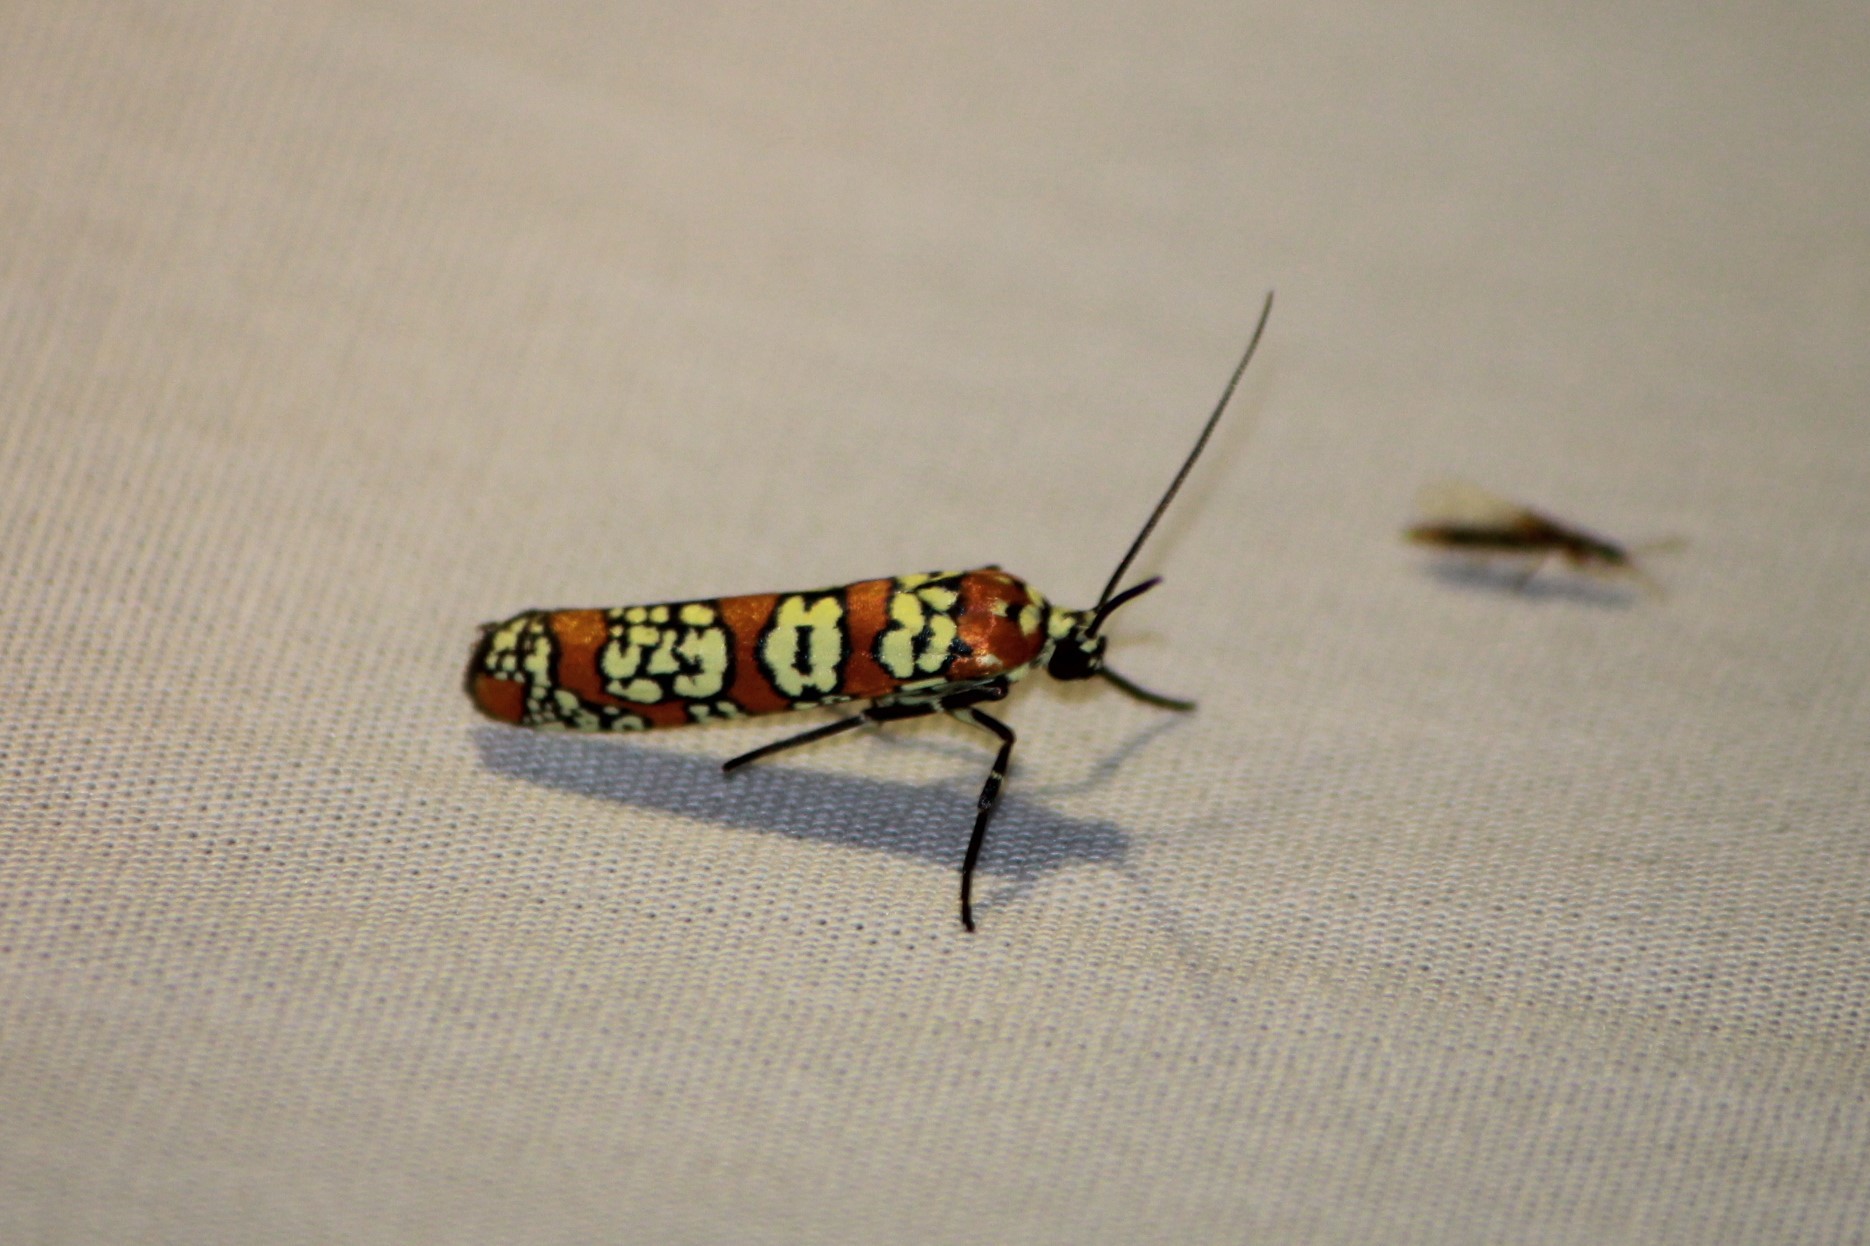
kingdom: Animalia
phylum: Arthropoda
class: Insecta
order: Lepidoptera
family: Attevidae
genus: Atteva
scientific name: Atteva punctella
